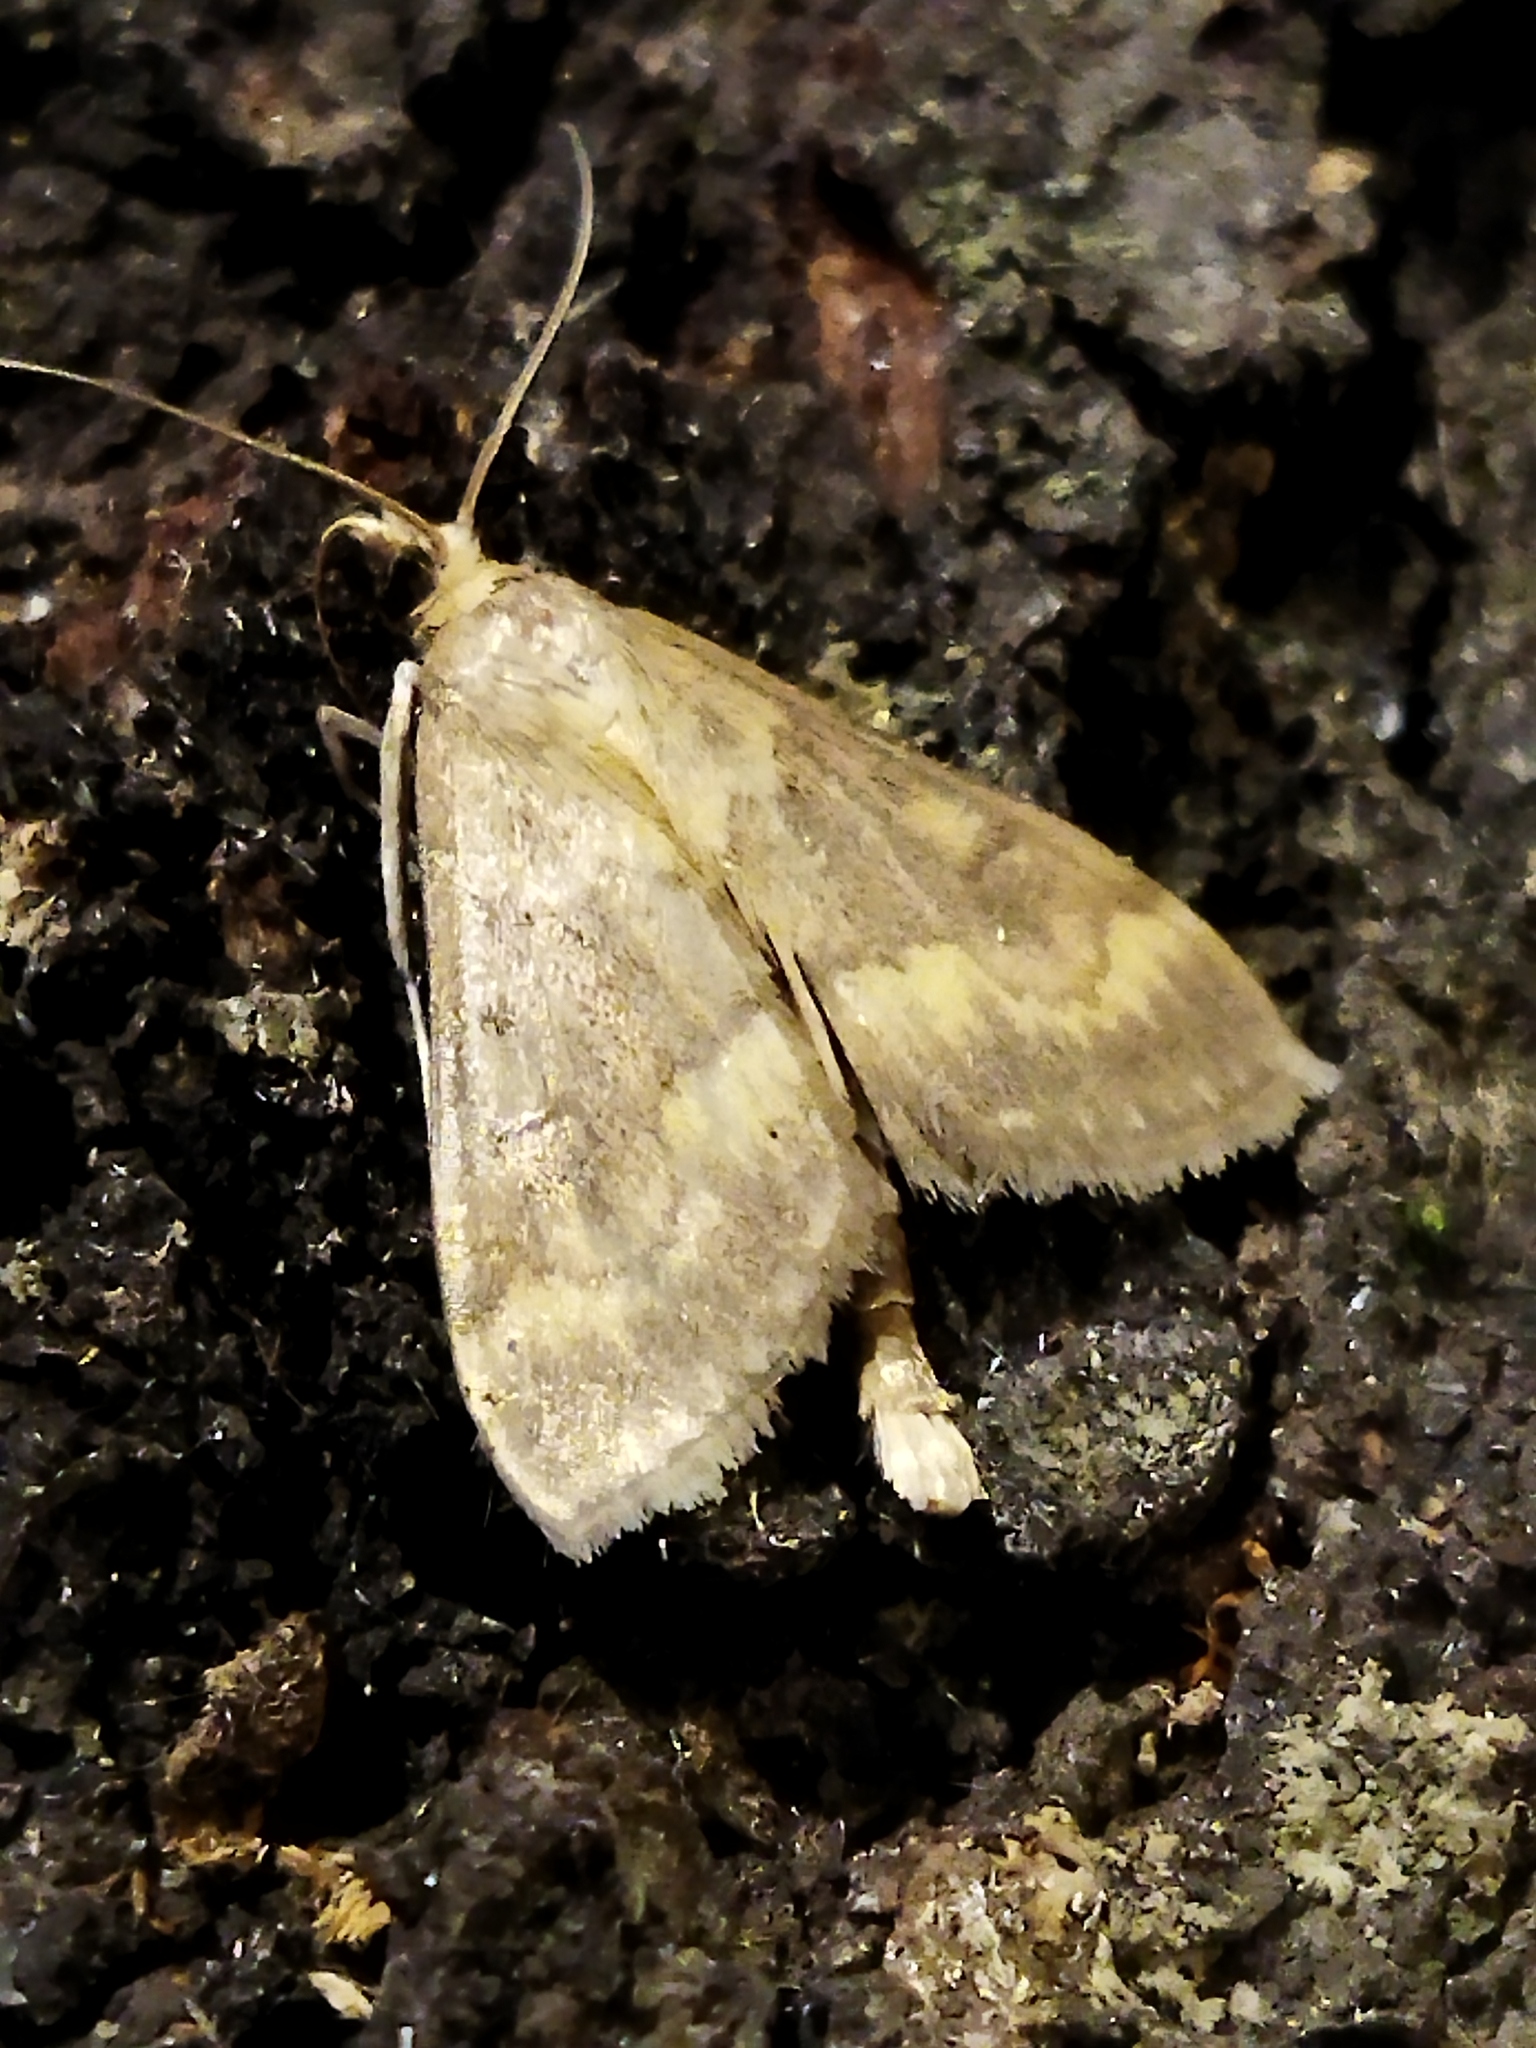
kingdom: Animalia
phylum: Arthropoda
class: Insecta
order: Lepidoptera
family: Crambidae
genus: Ostrinia
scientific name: Ostrinia nubilalis
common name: European corn borer
